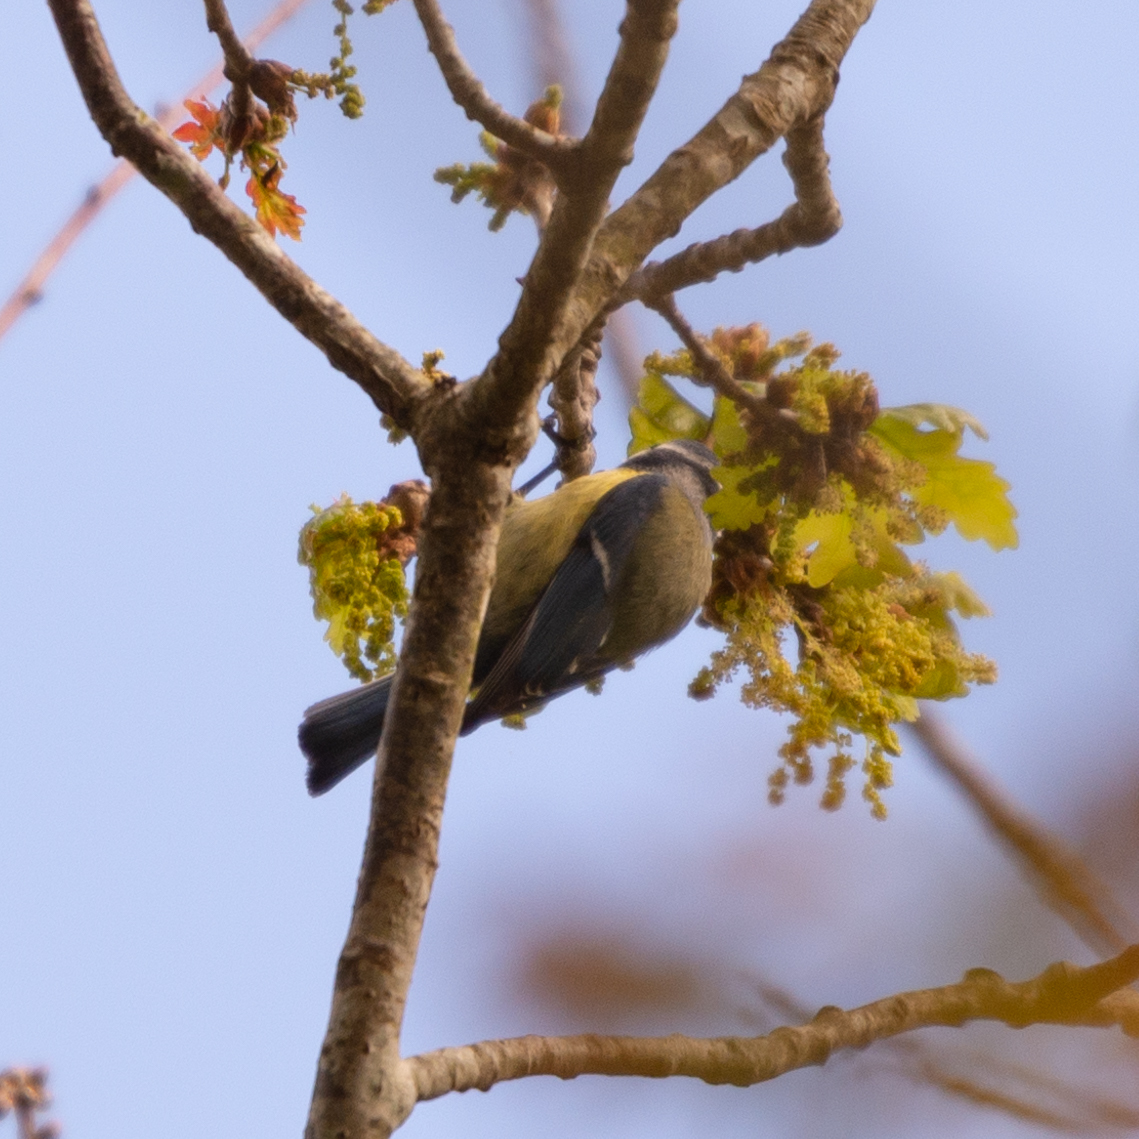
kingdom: Animalia
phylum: Chordata
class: Aves
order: Passeriformes
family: Paridae
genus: Cyanistes
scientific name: Cyanistes caeruleus
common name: Eurasian blue tit
